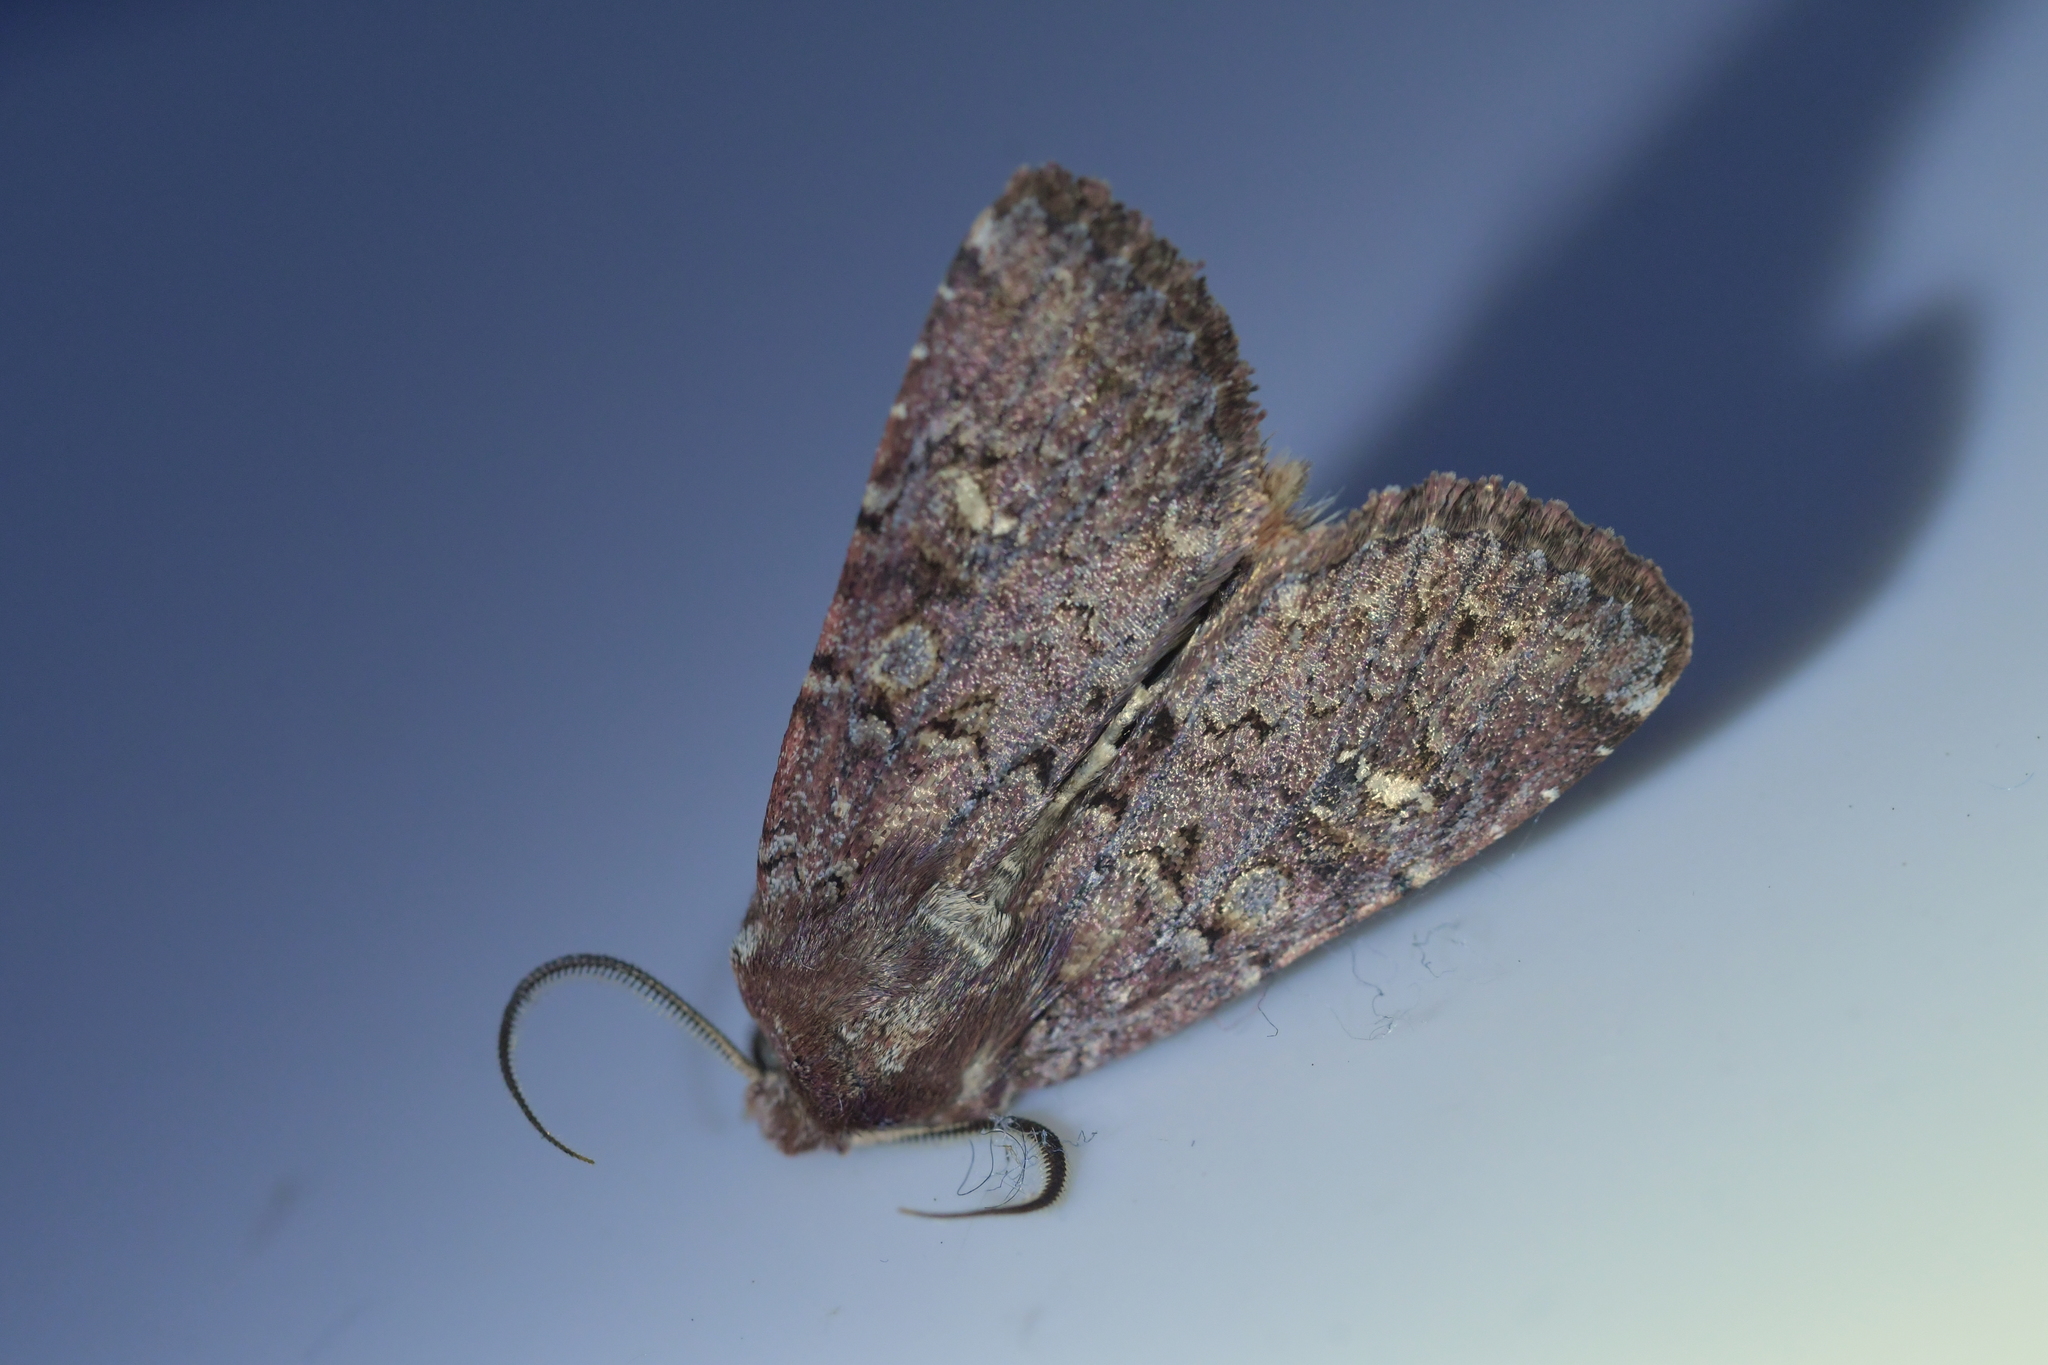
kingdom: Animalia
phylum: Arthropoda
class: Insecta
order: Lepidoptera
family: Noctuidae
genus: Ichneutica
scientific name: Ichneutica agorastis
